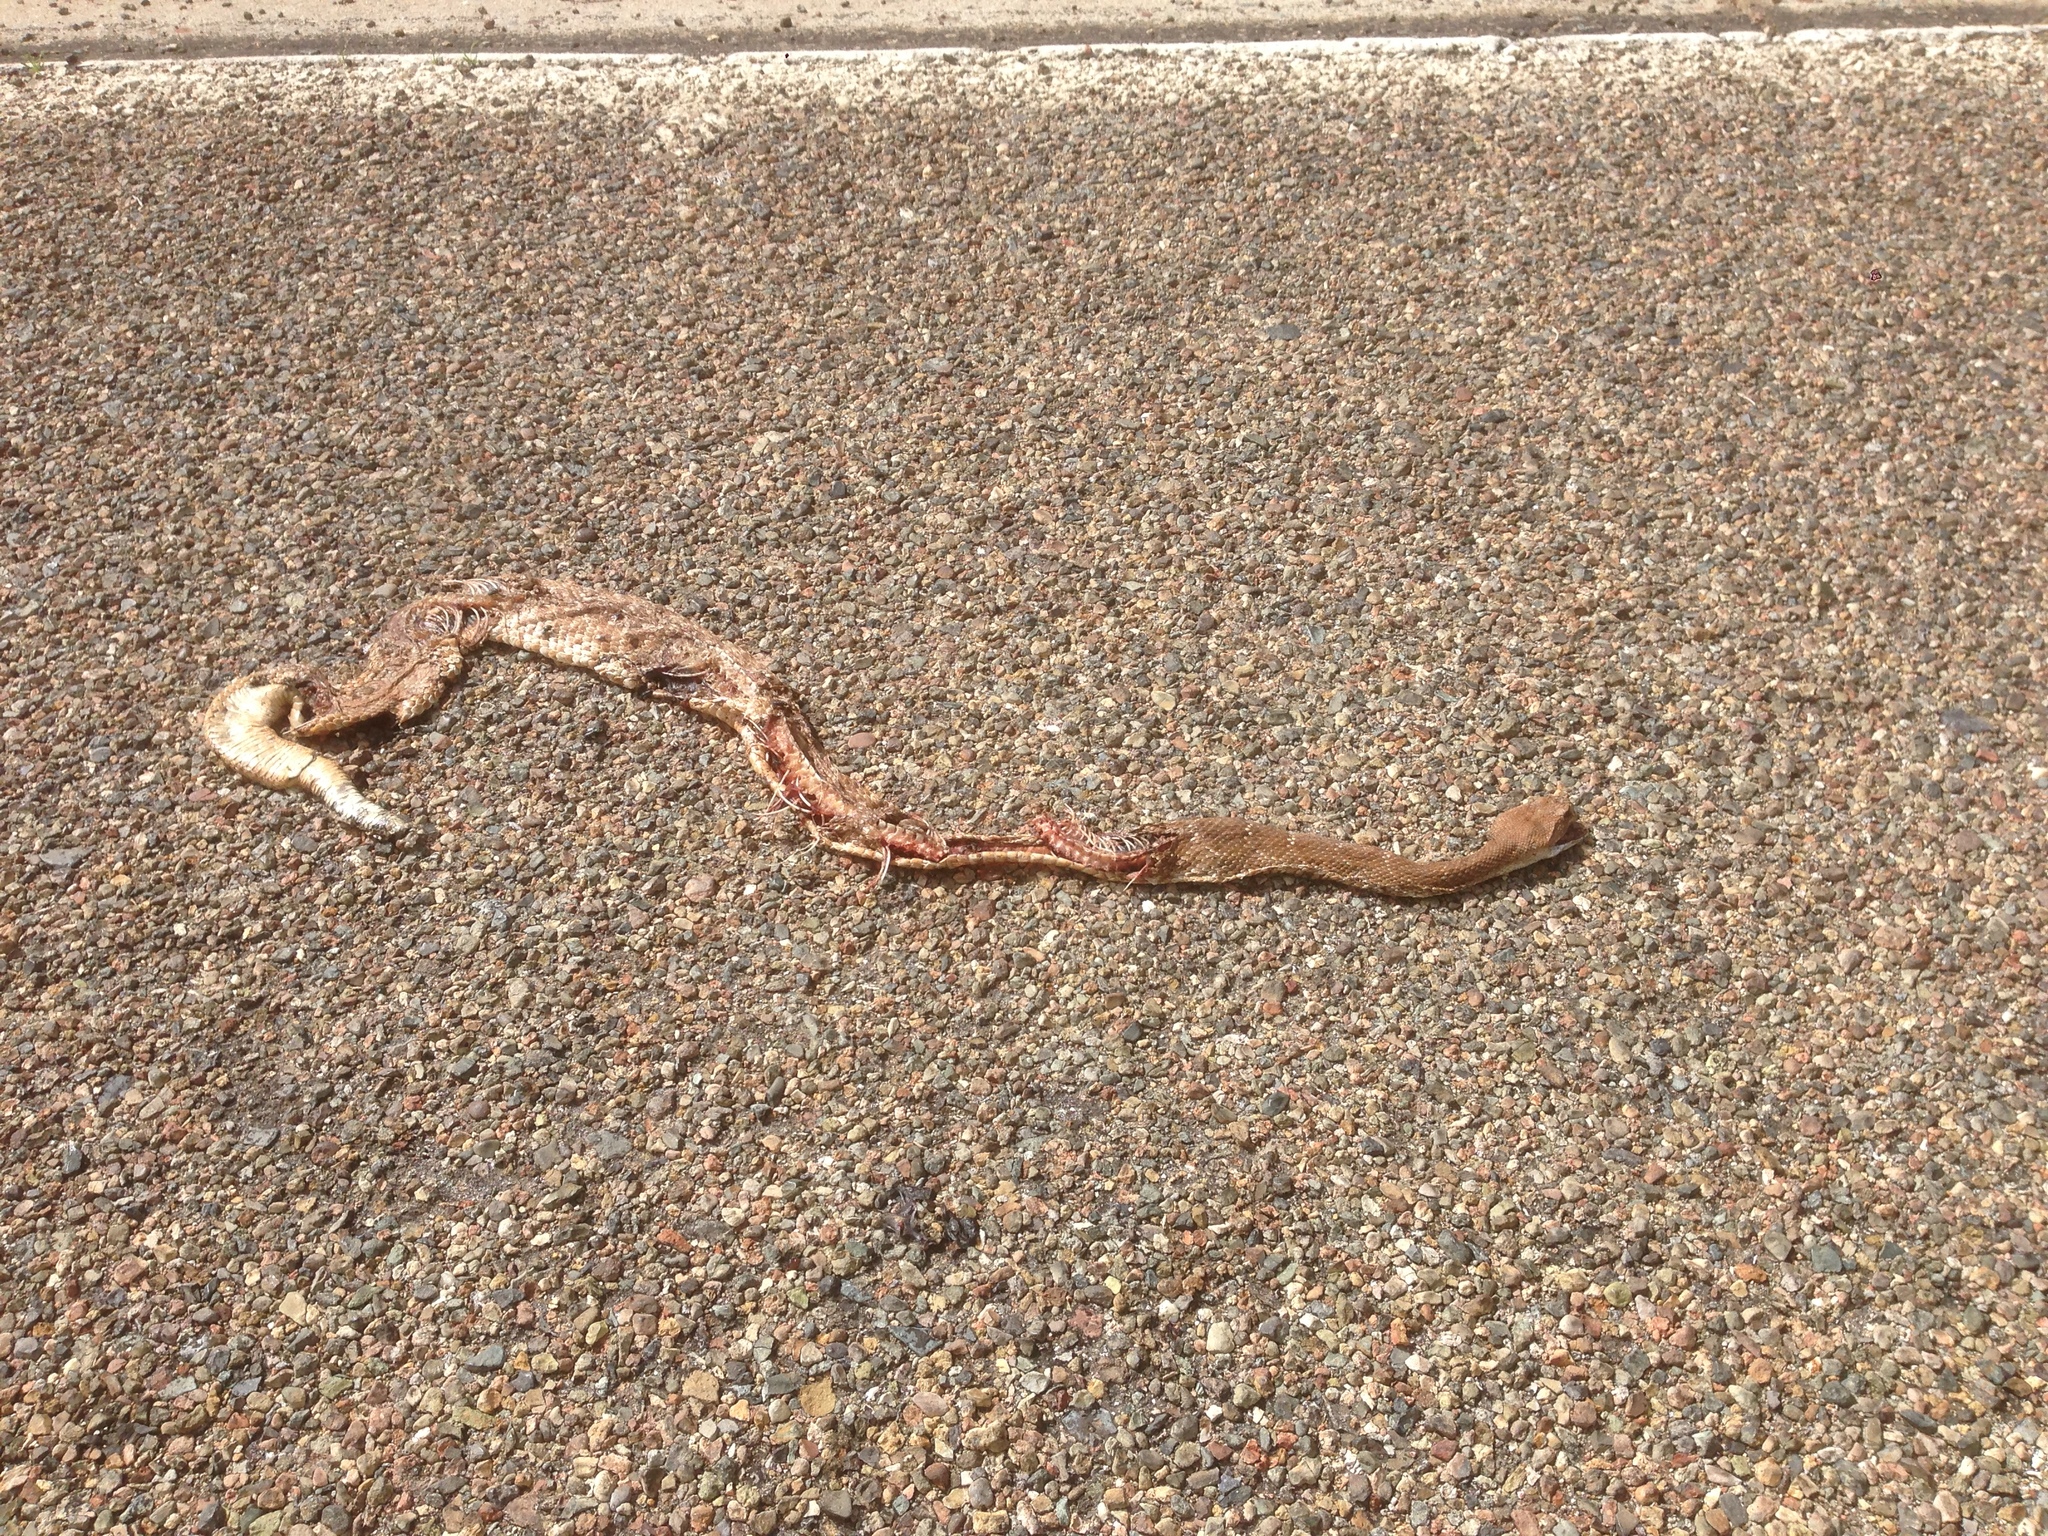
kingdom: Animalia
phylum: Chordata
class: Squamata
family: Viperidae
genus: Crotalus
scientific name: Crotalus ruber
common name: Red diamond rattlesnake
